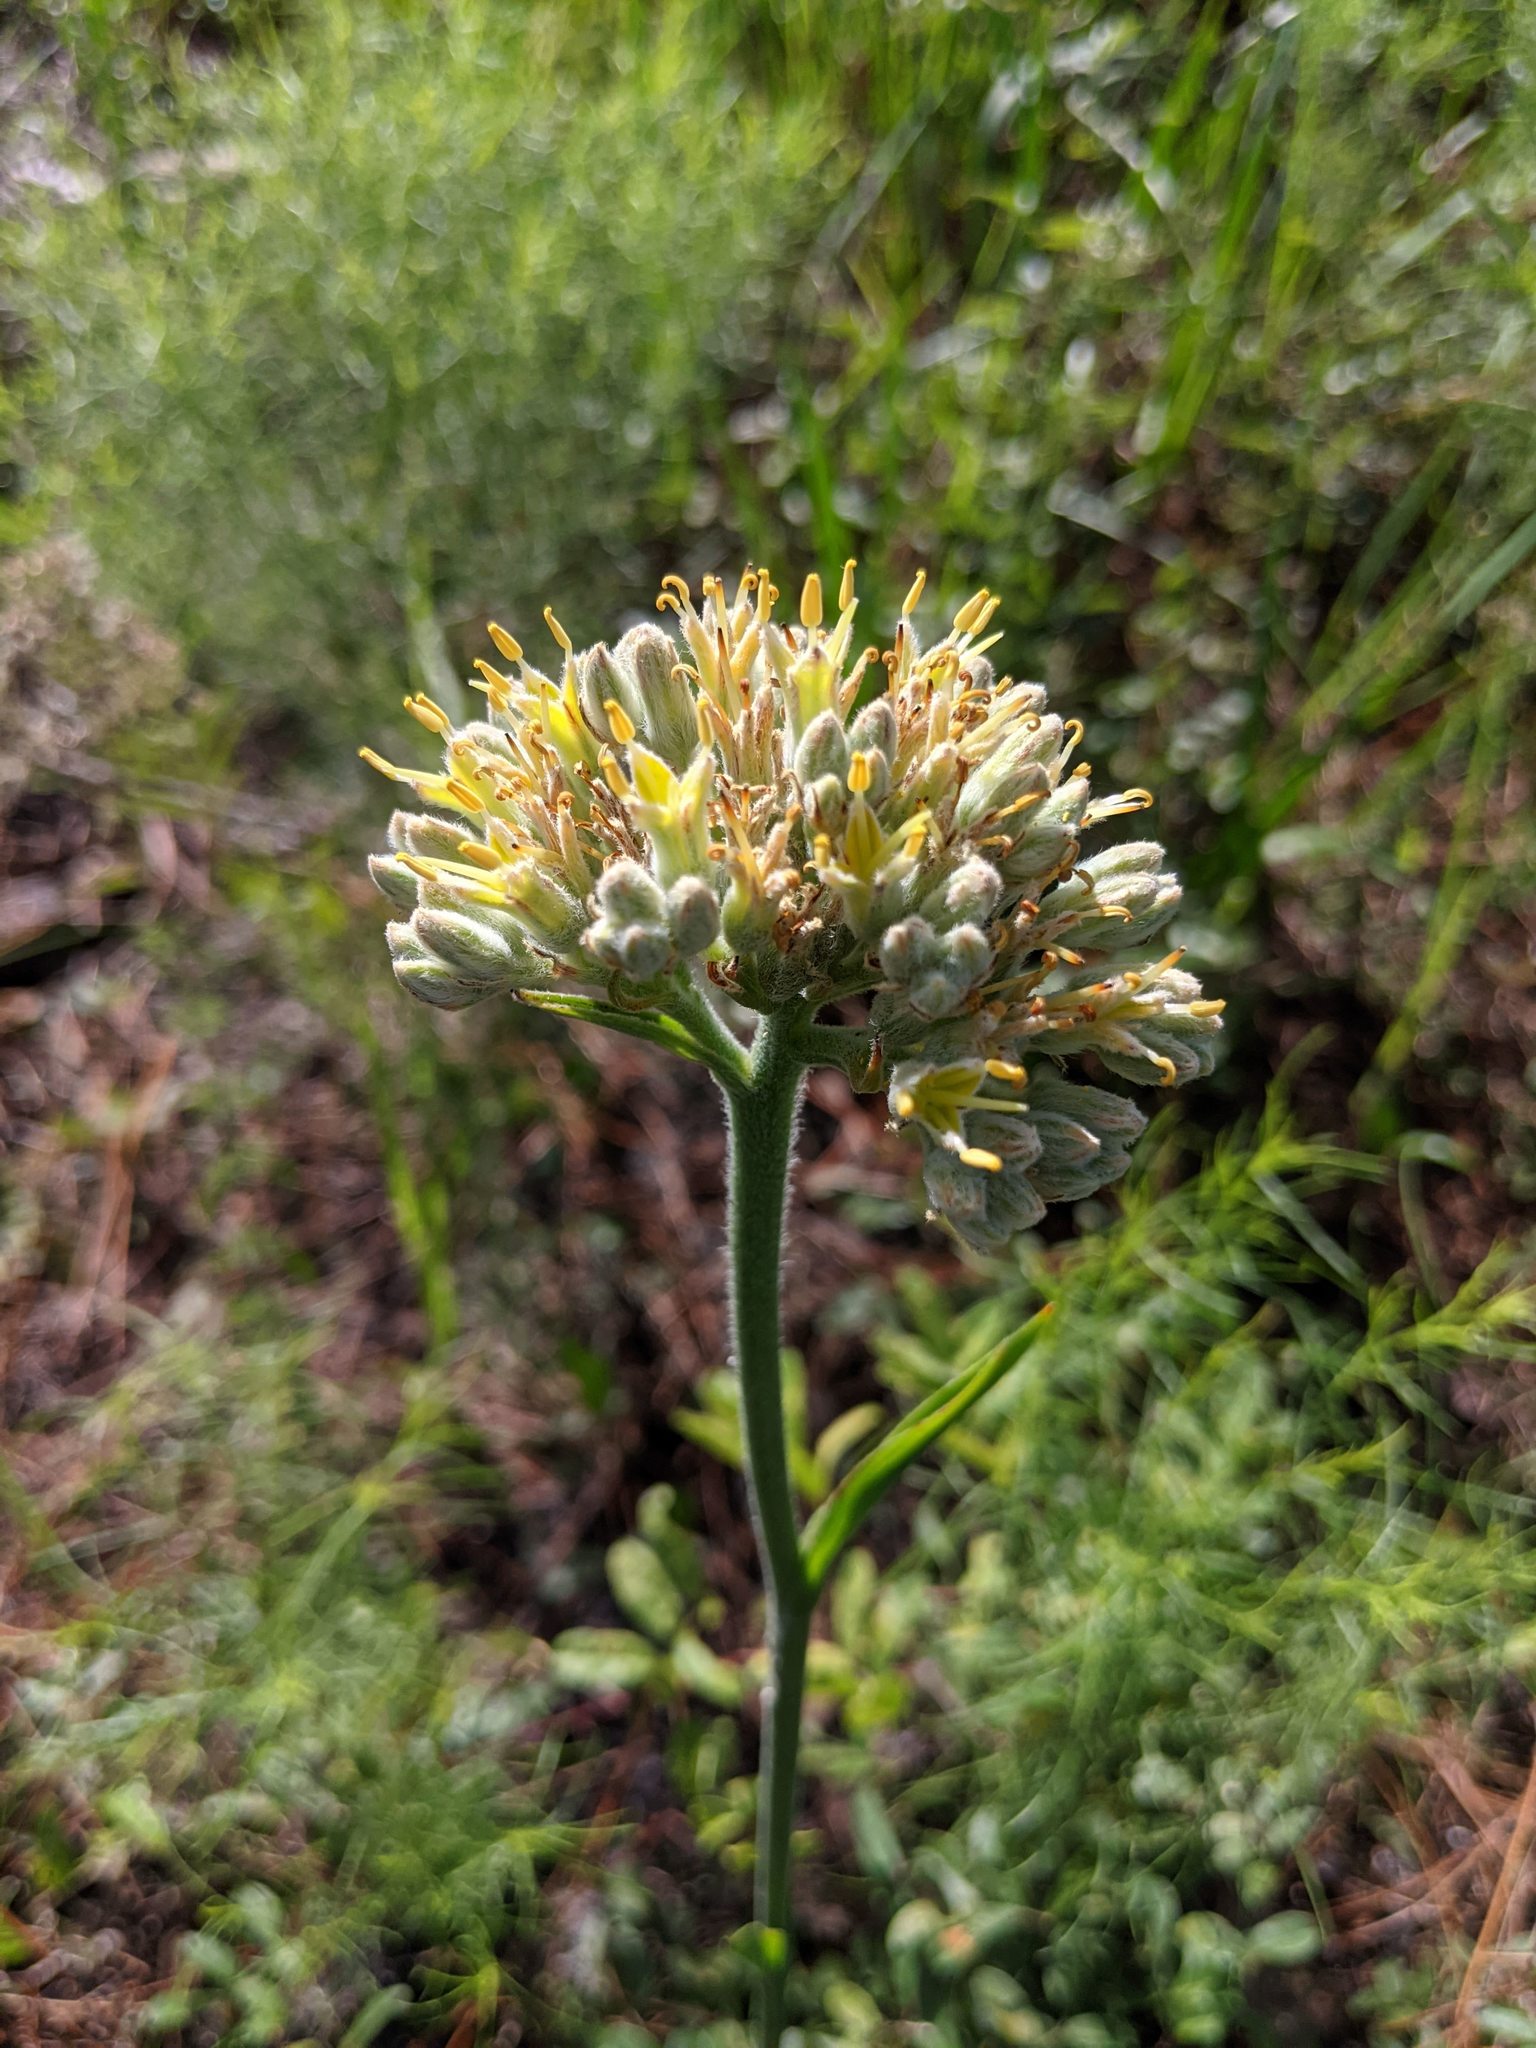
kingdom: Plantae
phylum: Tracheophyta
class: Liliopsida
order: Commelinales
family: Haemodoraceae
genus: Lachnanthes
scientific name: Lachnanthes caroliana
